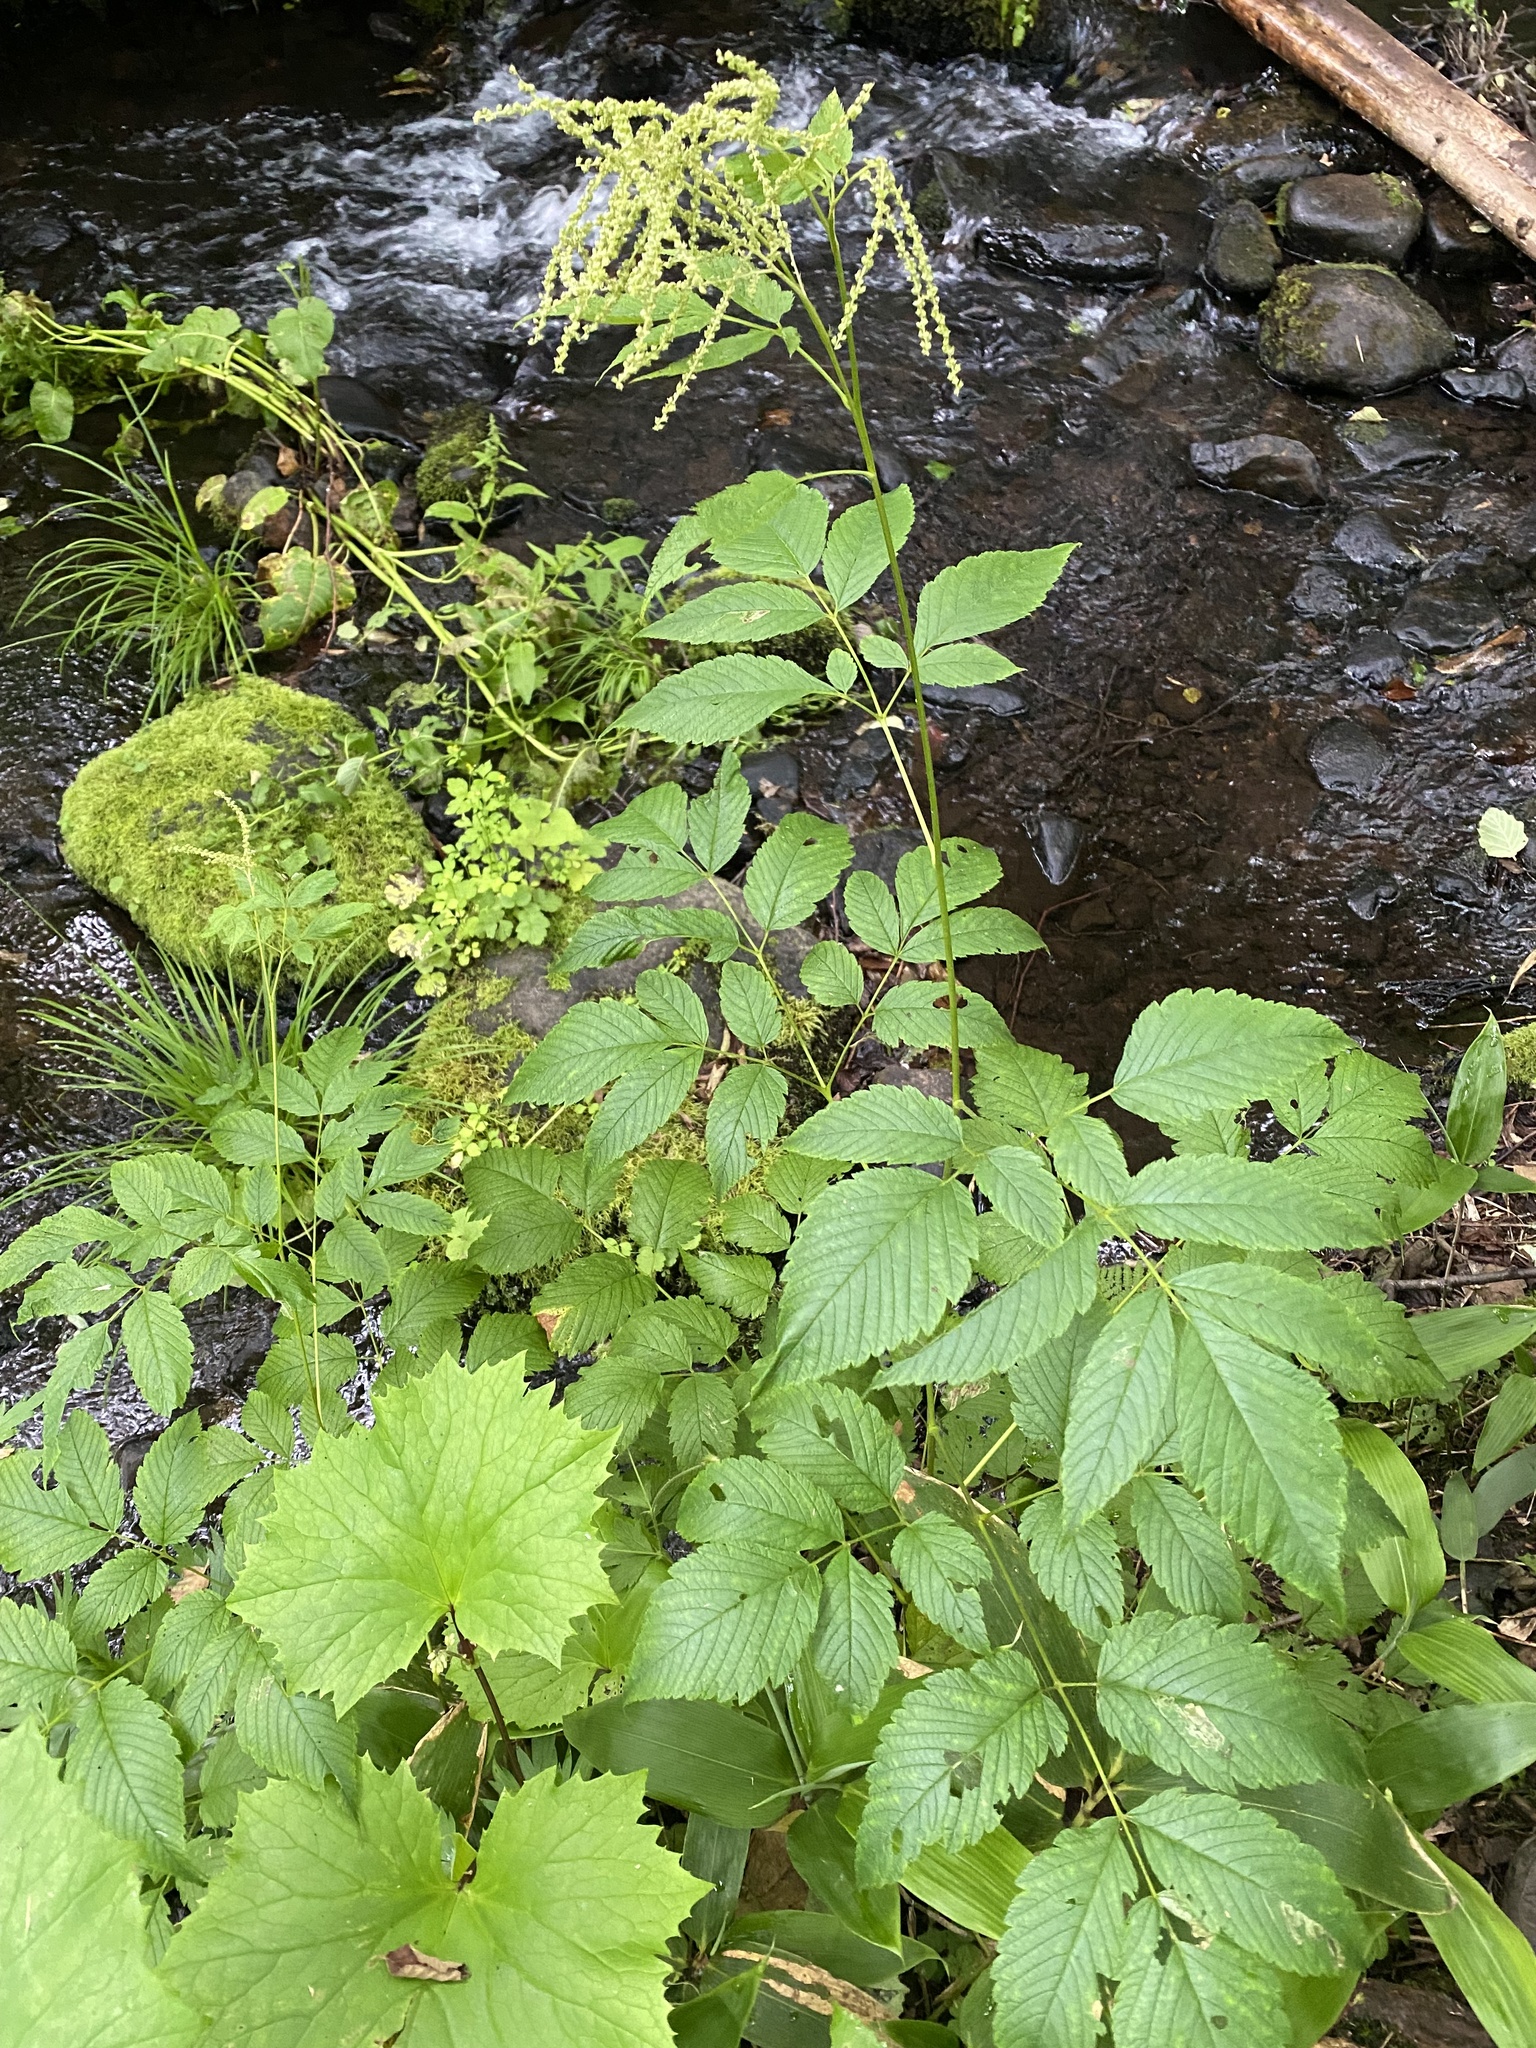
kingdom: Plantae
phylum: Tracheophyta
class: Magnoliopsida
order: Rosales
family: Rosaceae
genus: Aruncus
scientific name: Aruncus dioicus
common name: Buck's-beard
